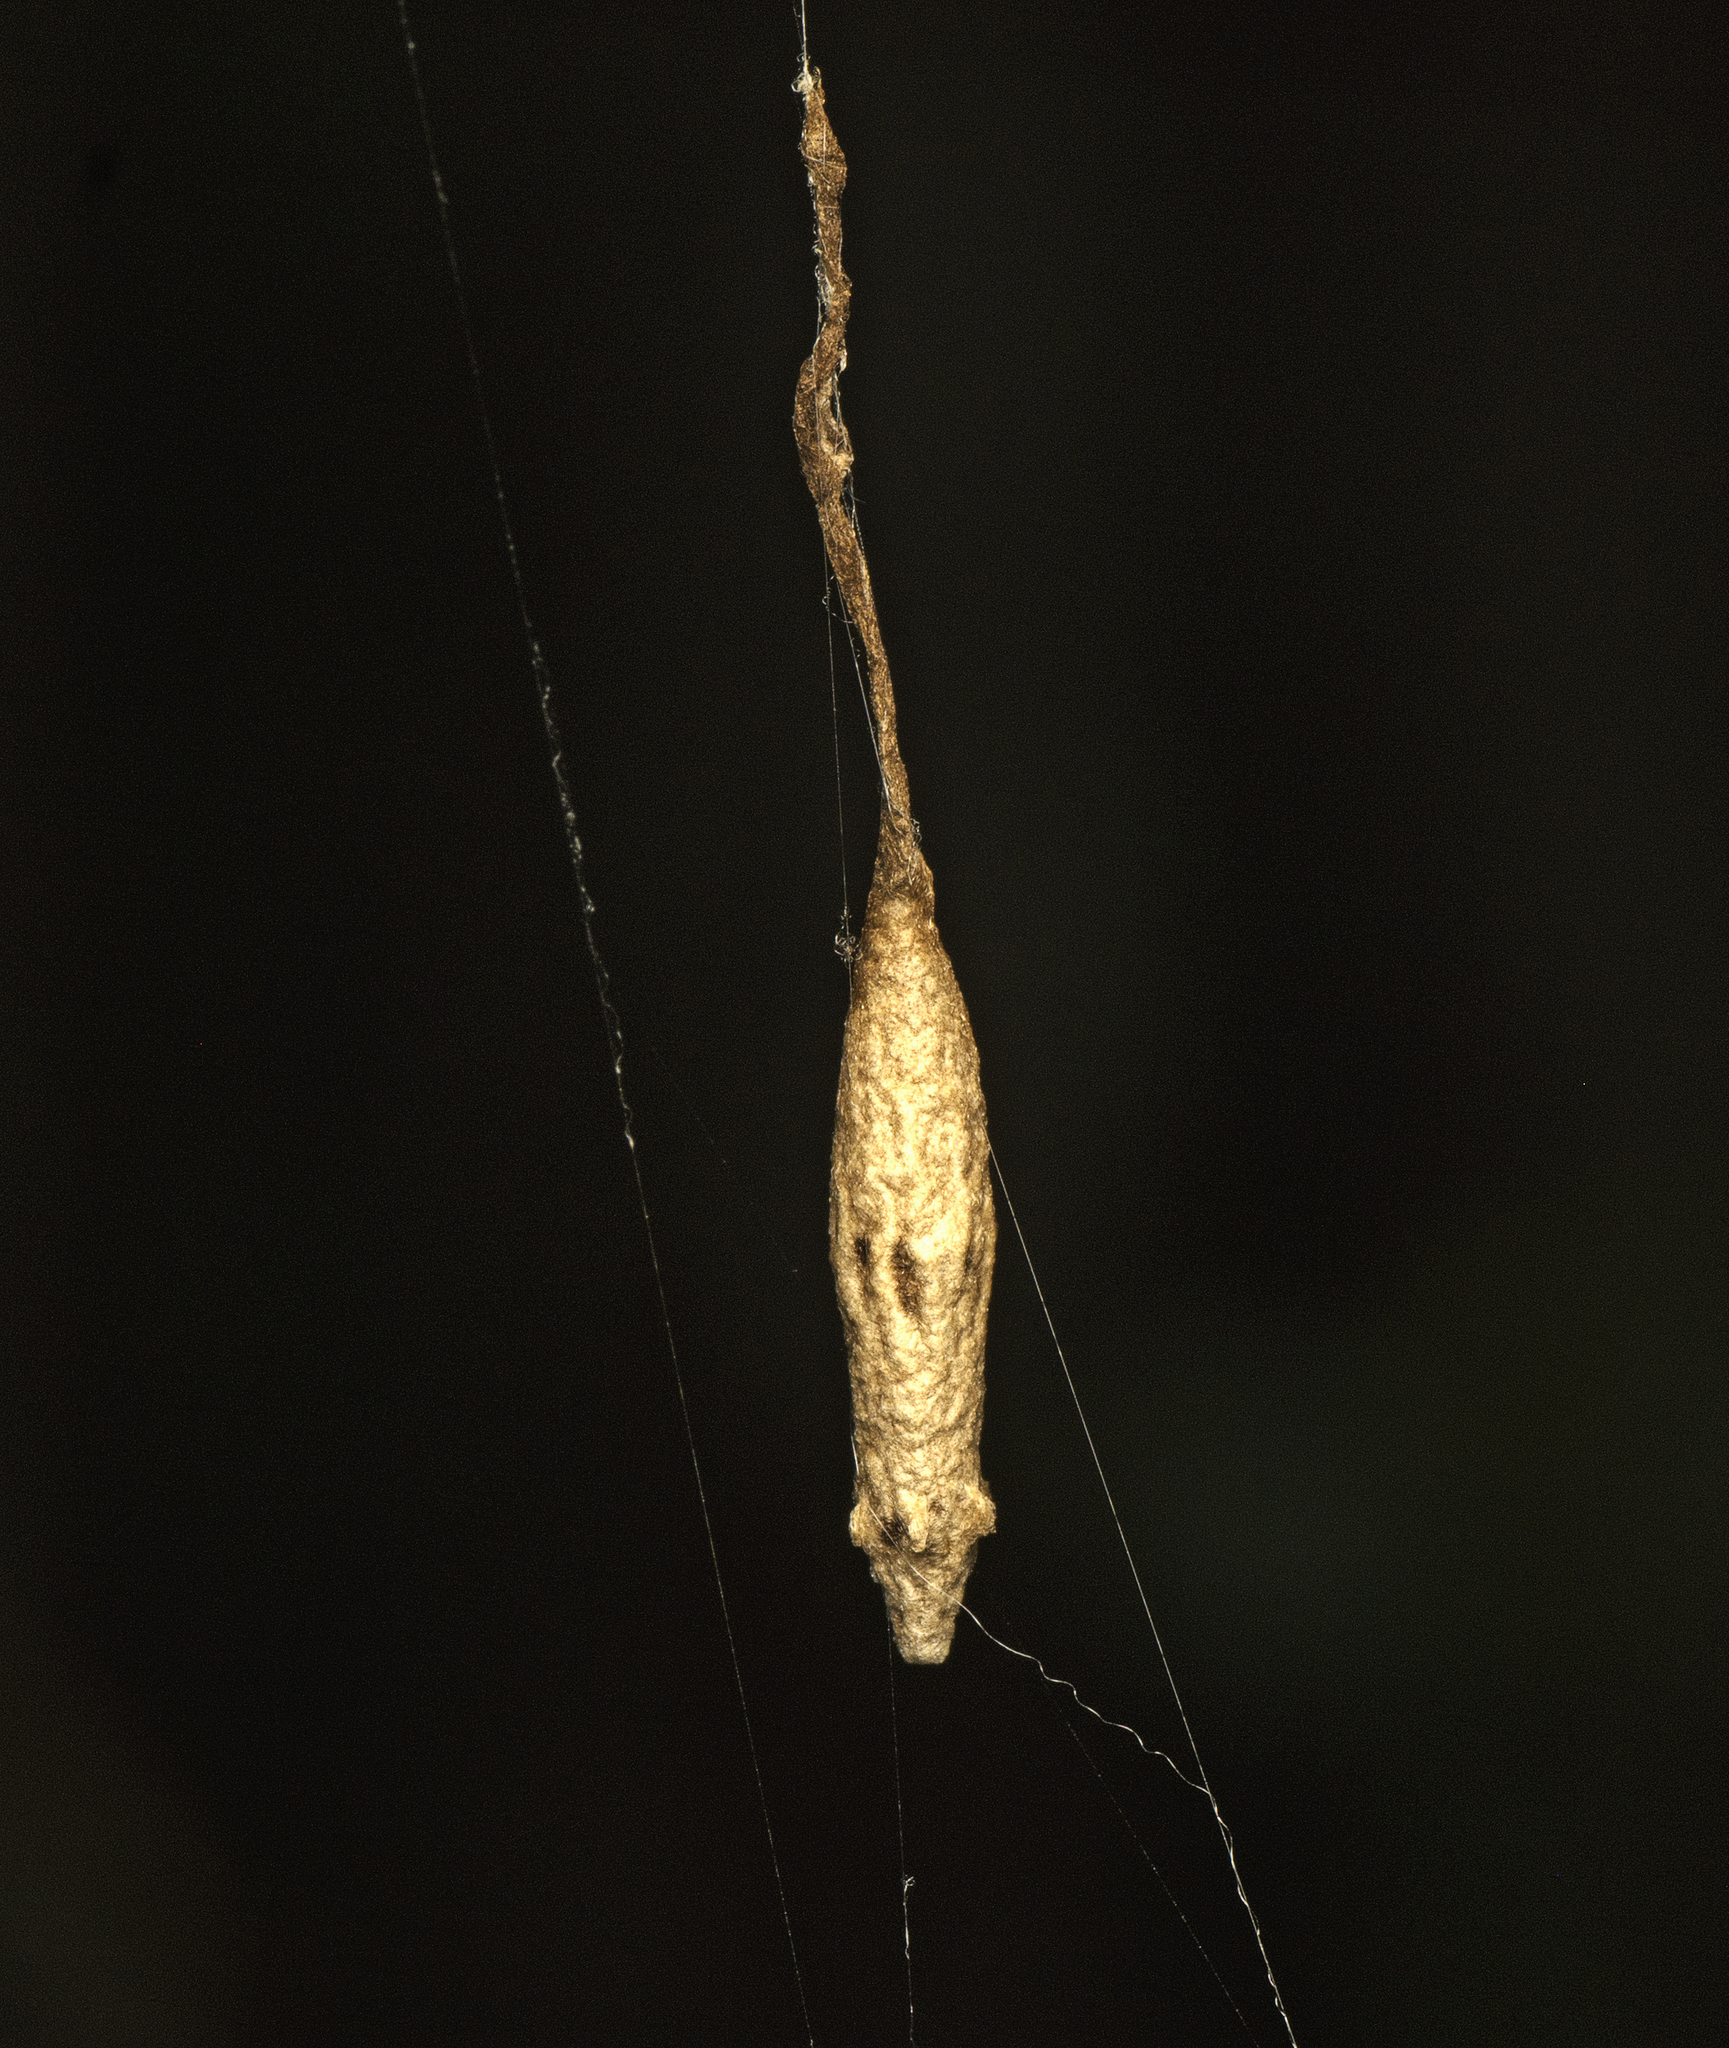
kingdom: Animalia
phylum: Arthropoda
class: Insecta
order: Hymenoptera
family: Ichneumonidae
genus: Eriostethus
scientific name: Eriostethus perkinsi
